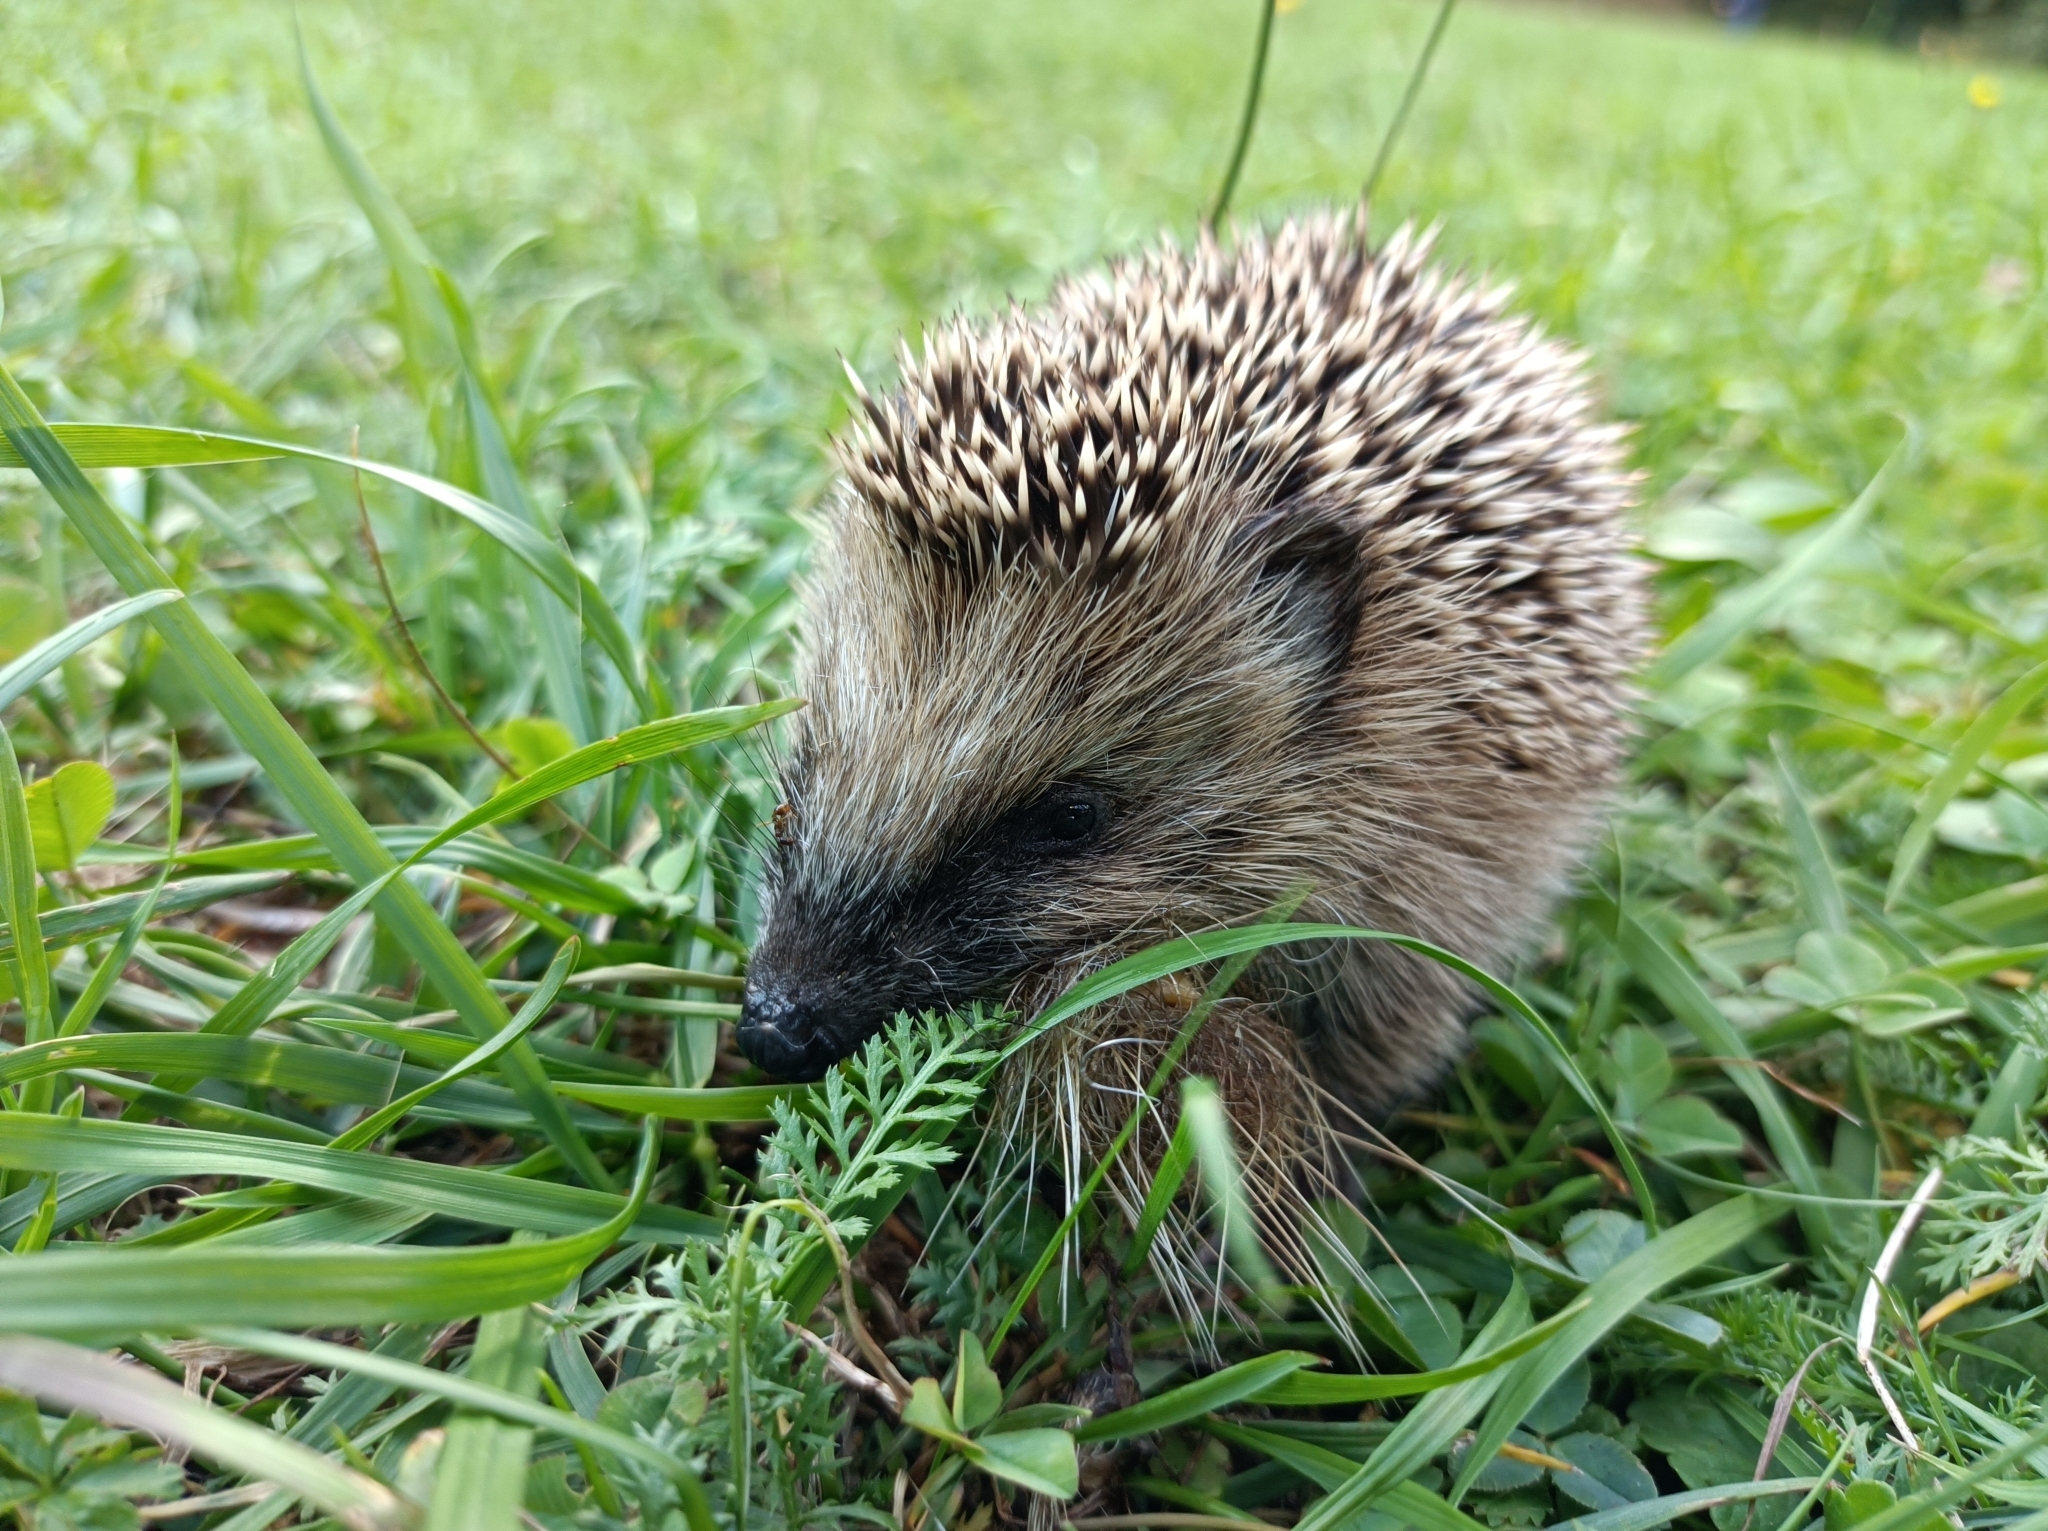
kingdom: Animalia
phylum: Chordata
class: Mammalia
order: Erinaceomorpha
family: Erinaceidae
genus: Erinaceus
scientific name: Erinaceus europaeus
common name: West european hedgehog
